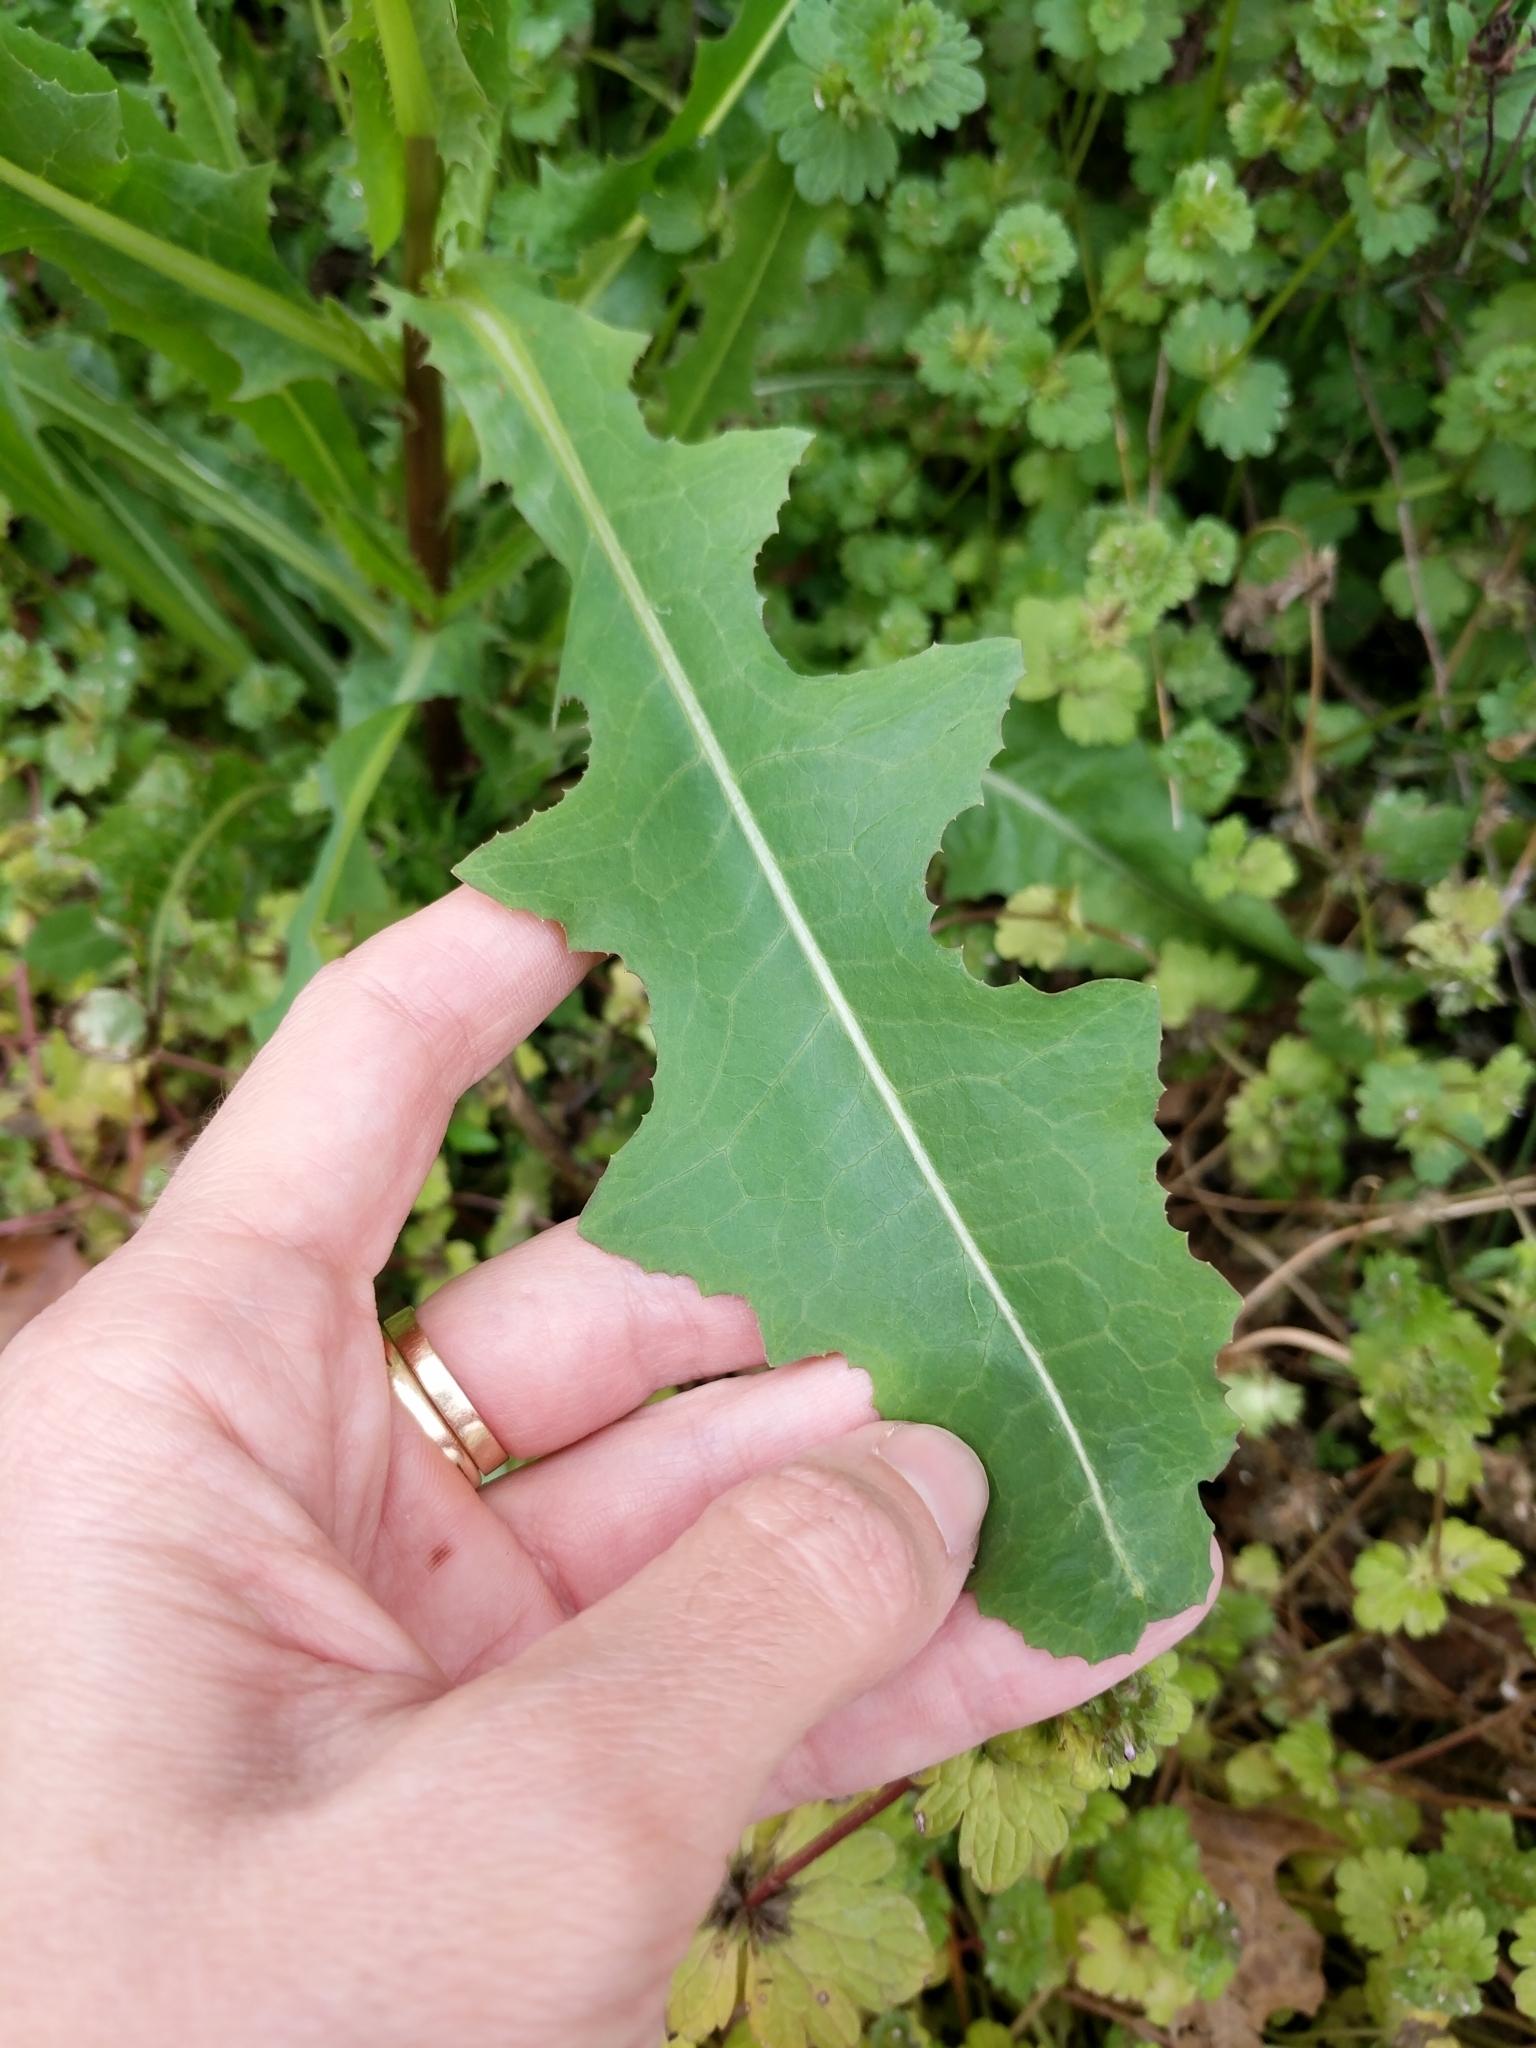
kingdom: Plantae
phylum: Tracheophyta
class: Magnoliopsida
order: Asterales
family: Asteraceae
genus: Lactuca
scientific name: Lactuca serriola
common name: Prickly lettuce
